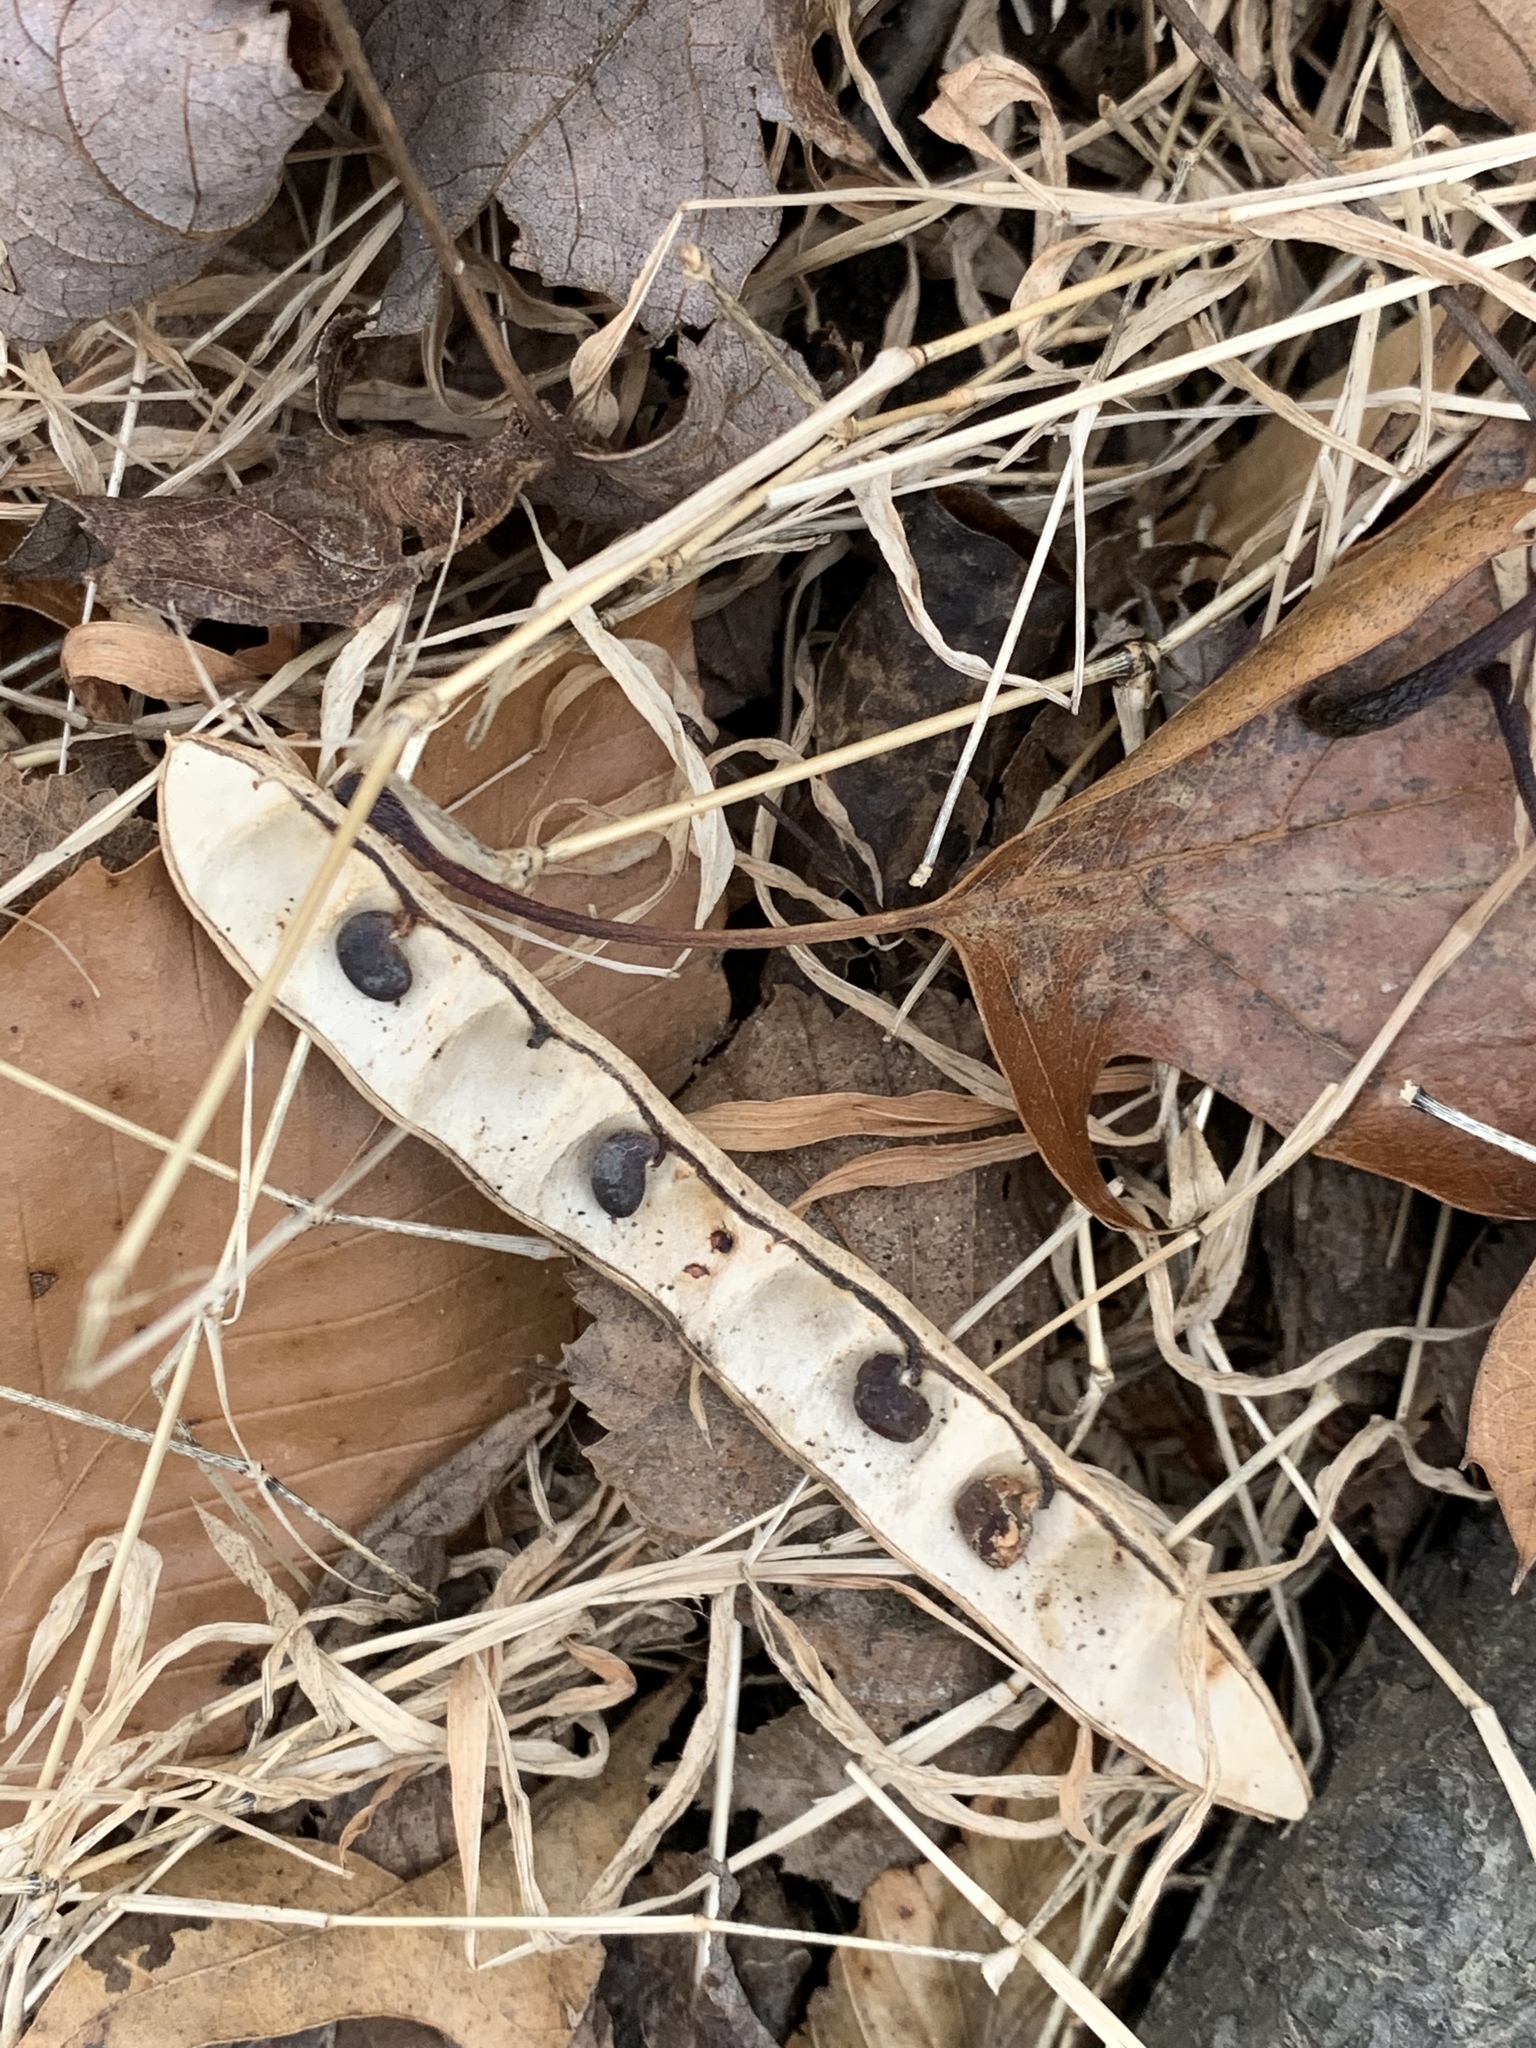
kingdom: Plantae
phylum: Tracheophyta
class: Magnoliopsida
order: Fabales
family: Fabaceae
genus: Robinia
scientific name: Robinia pseudoacacia
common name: Black locust
